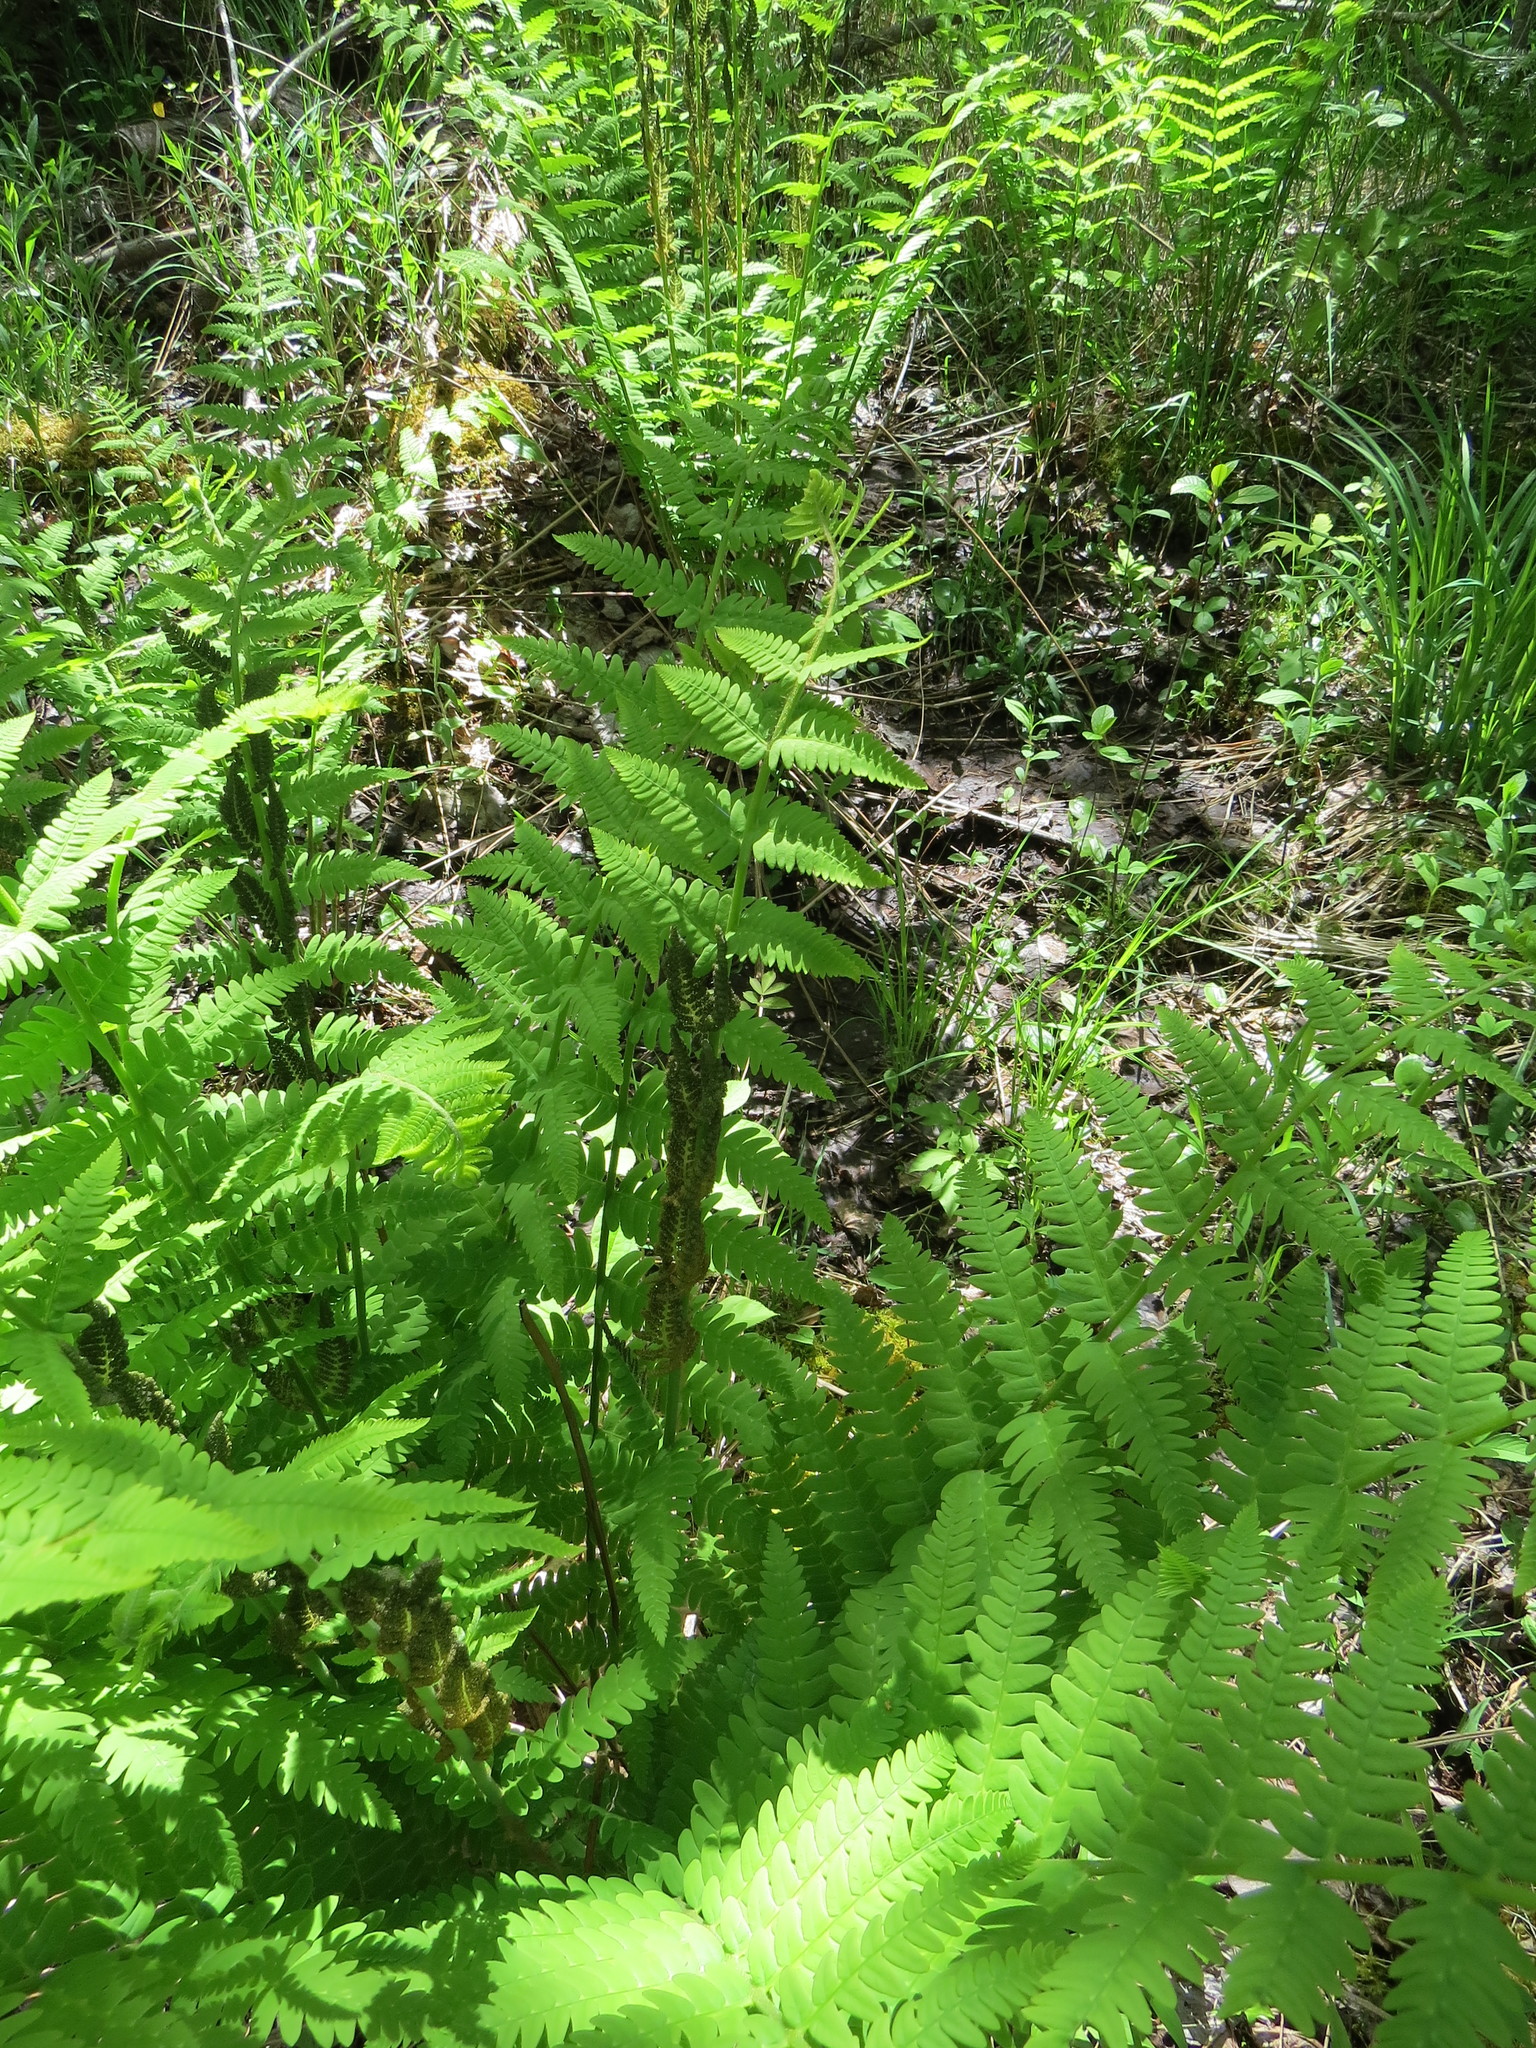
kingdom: Plantae
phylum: Tracheophyta
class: Polypodiopsida
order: Osmundales
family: Osmundaceae
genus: Claytosmunda
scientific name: Claytosmunda claytoniana
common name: Clayton's fern
